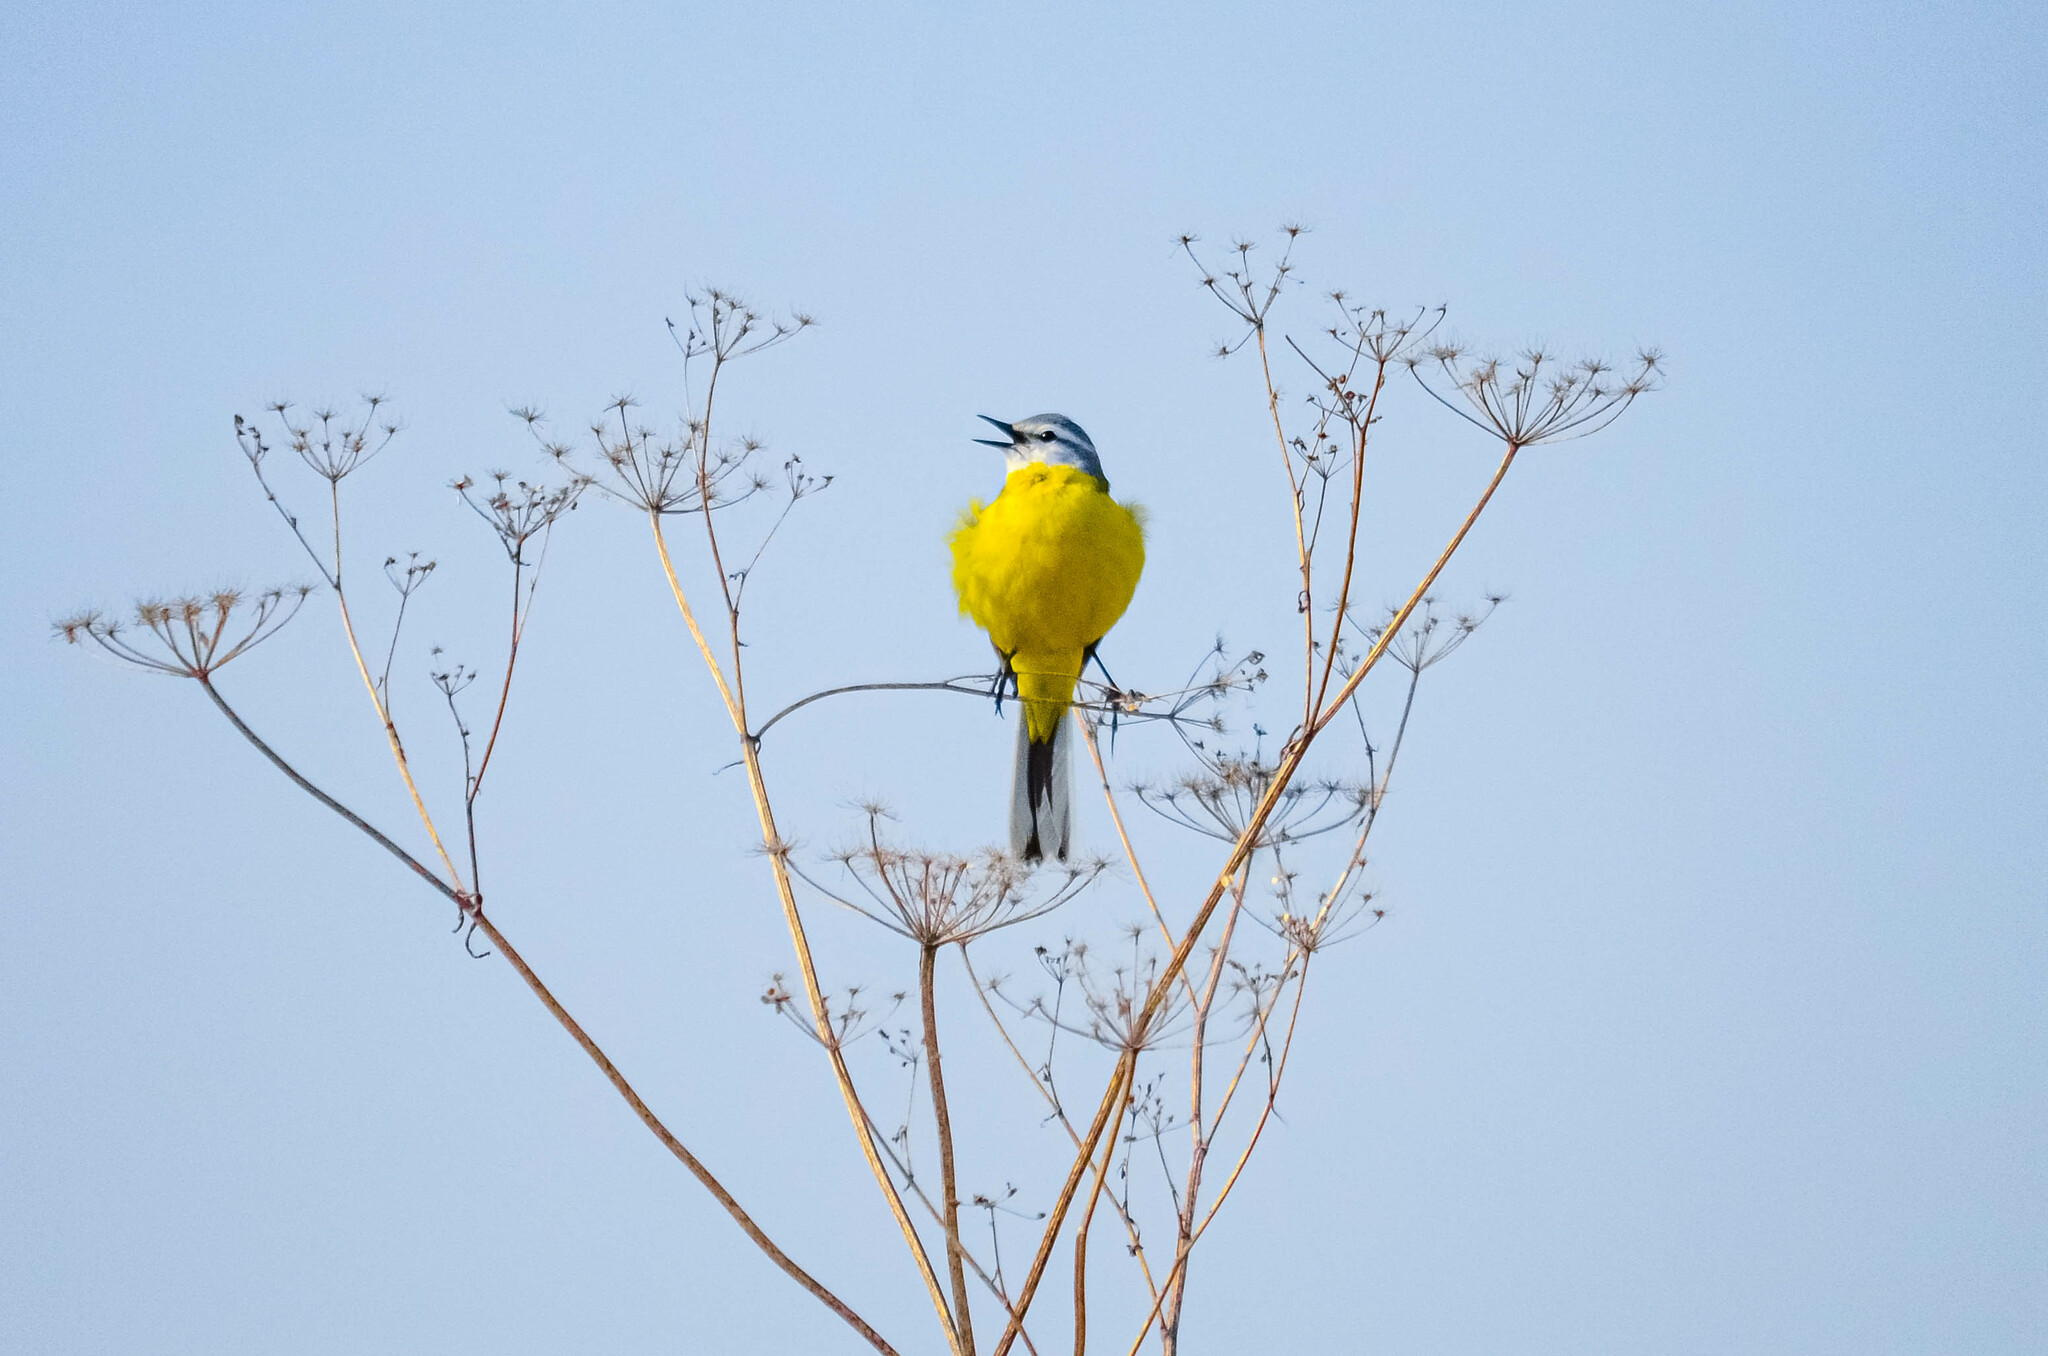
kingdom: Animalia
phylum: Chordata
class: Aves
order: Passeriformes
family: Motacillidae
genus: Motacilla
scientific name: Motacilla flava
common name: Western yellow wagtail
